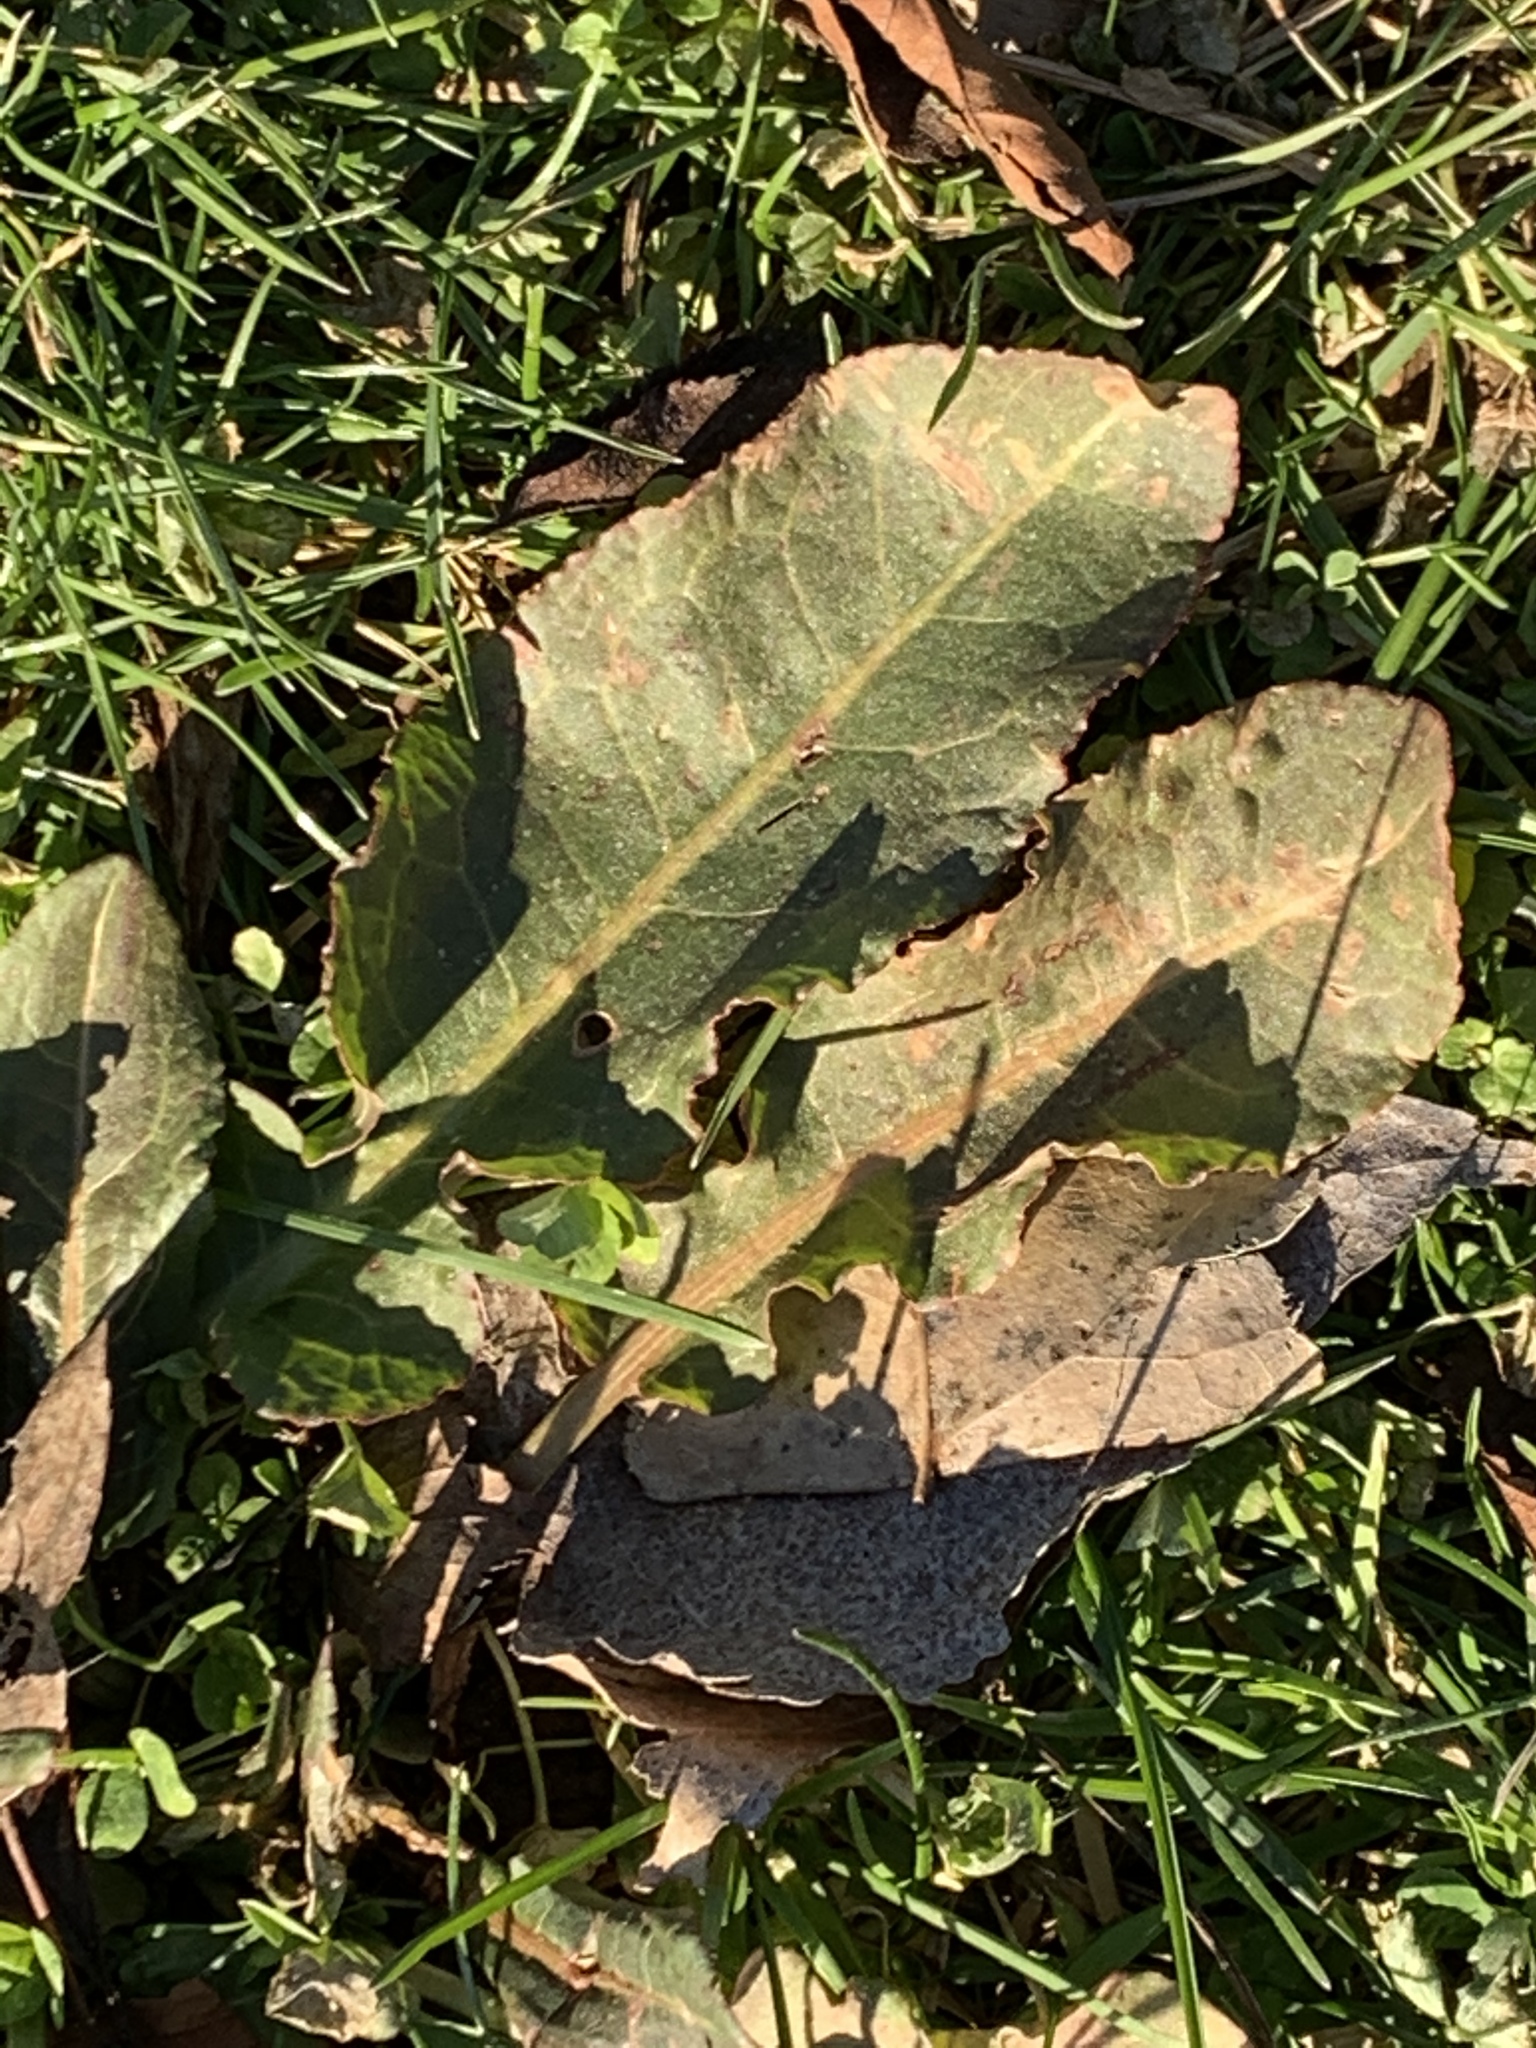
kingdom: Plantae
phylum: Tracheophyta
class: Magnoliopsida
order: Caryophyllales
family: Polygonaceae
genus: Rumex
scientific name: Rumex crispus
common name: Curled dock
